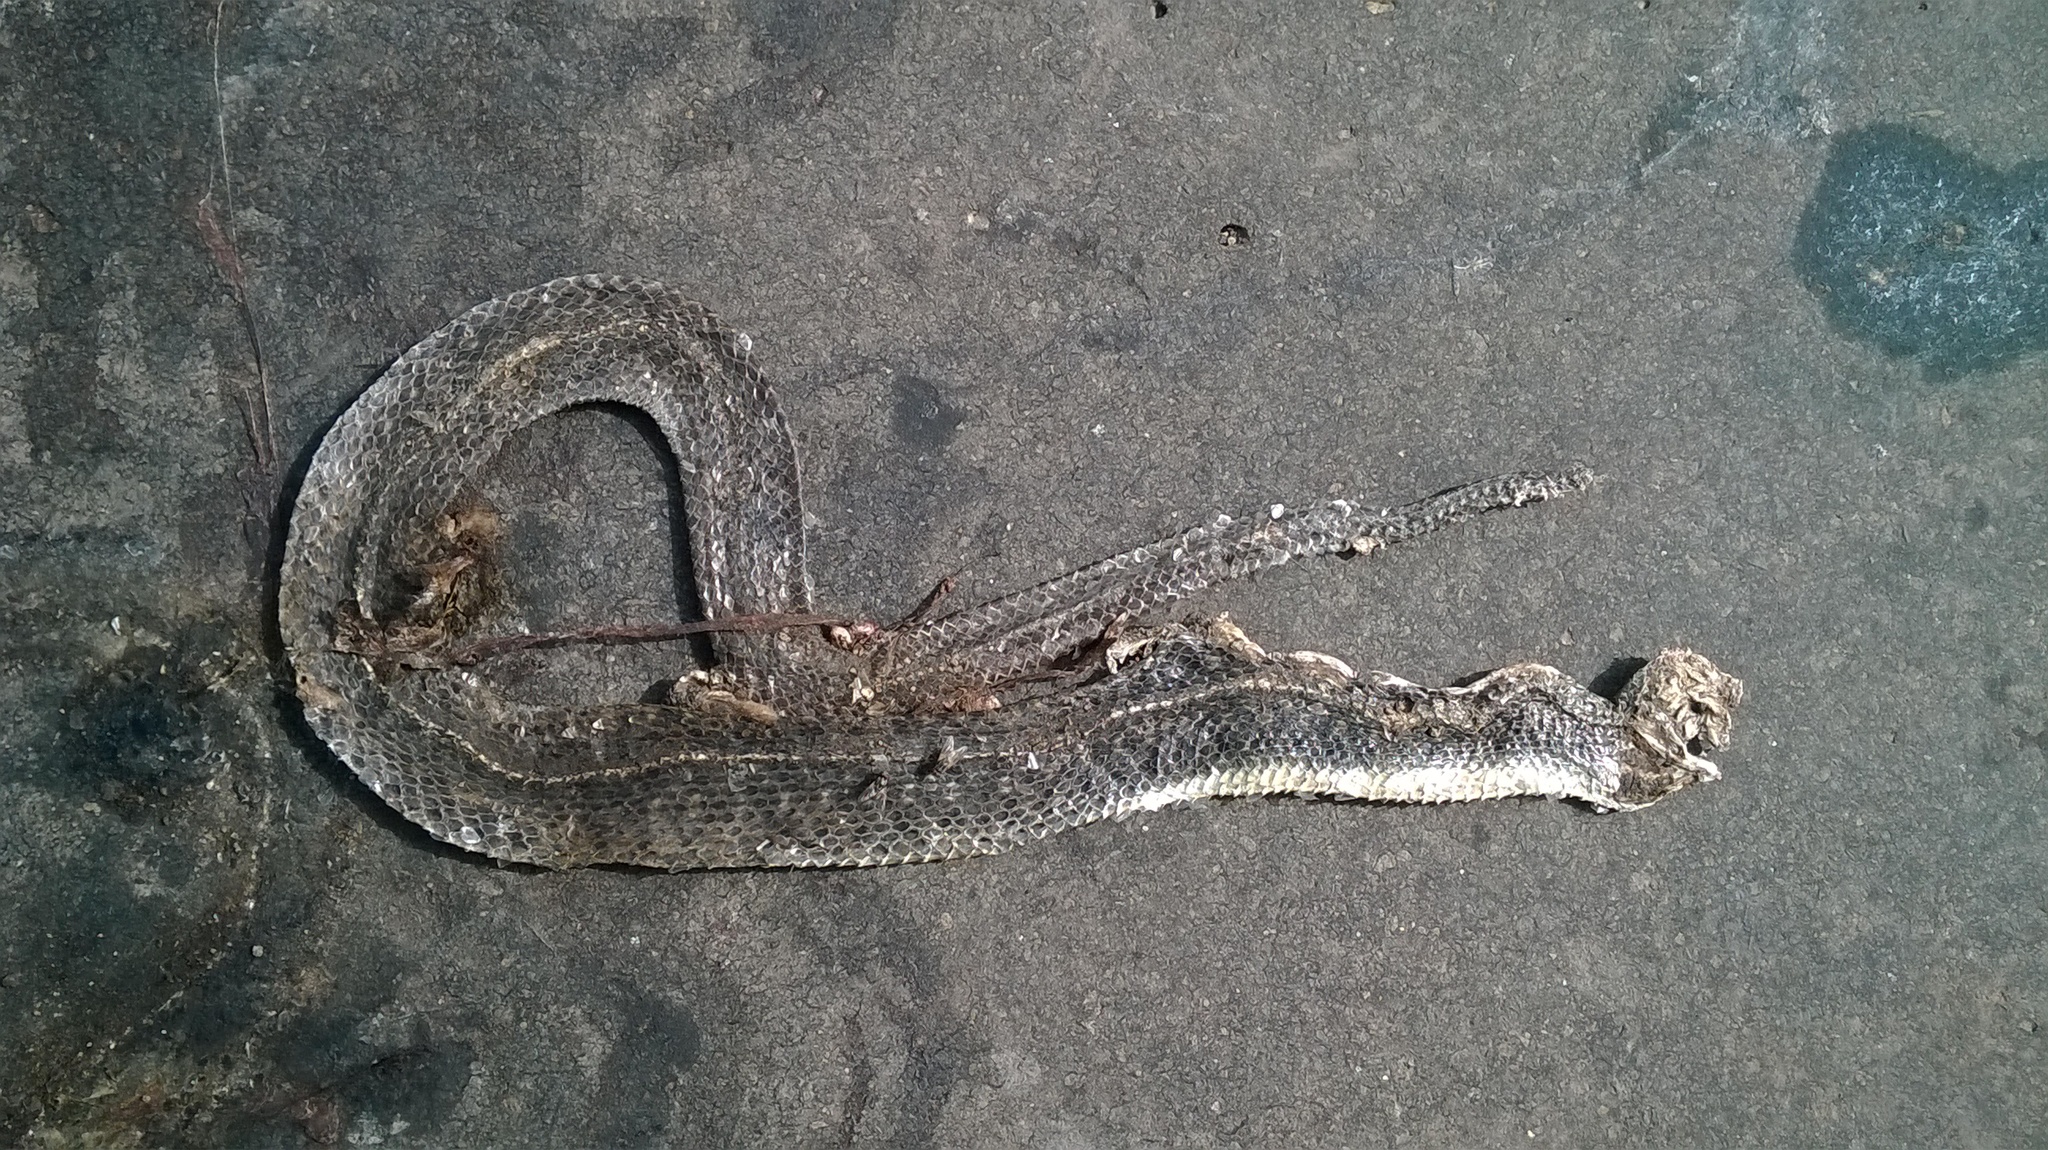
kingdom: Animalia
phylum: Chordata
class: Squamata
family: Colubridae
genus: Fowlea
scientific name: Fowlea piscator
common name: Asiatic water snake
